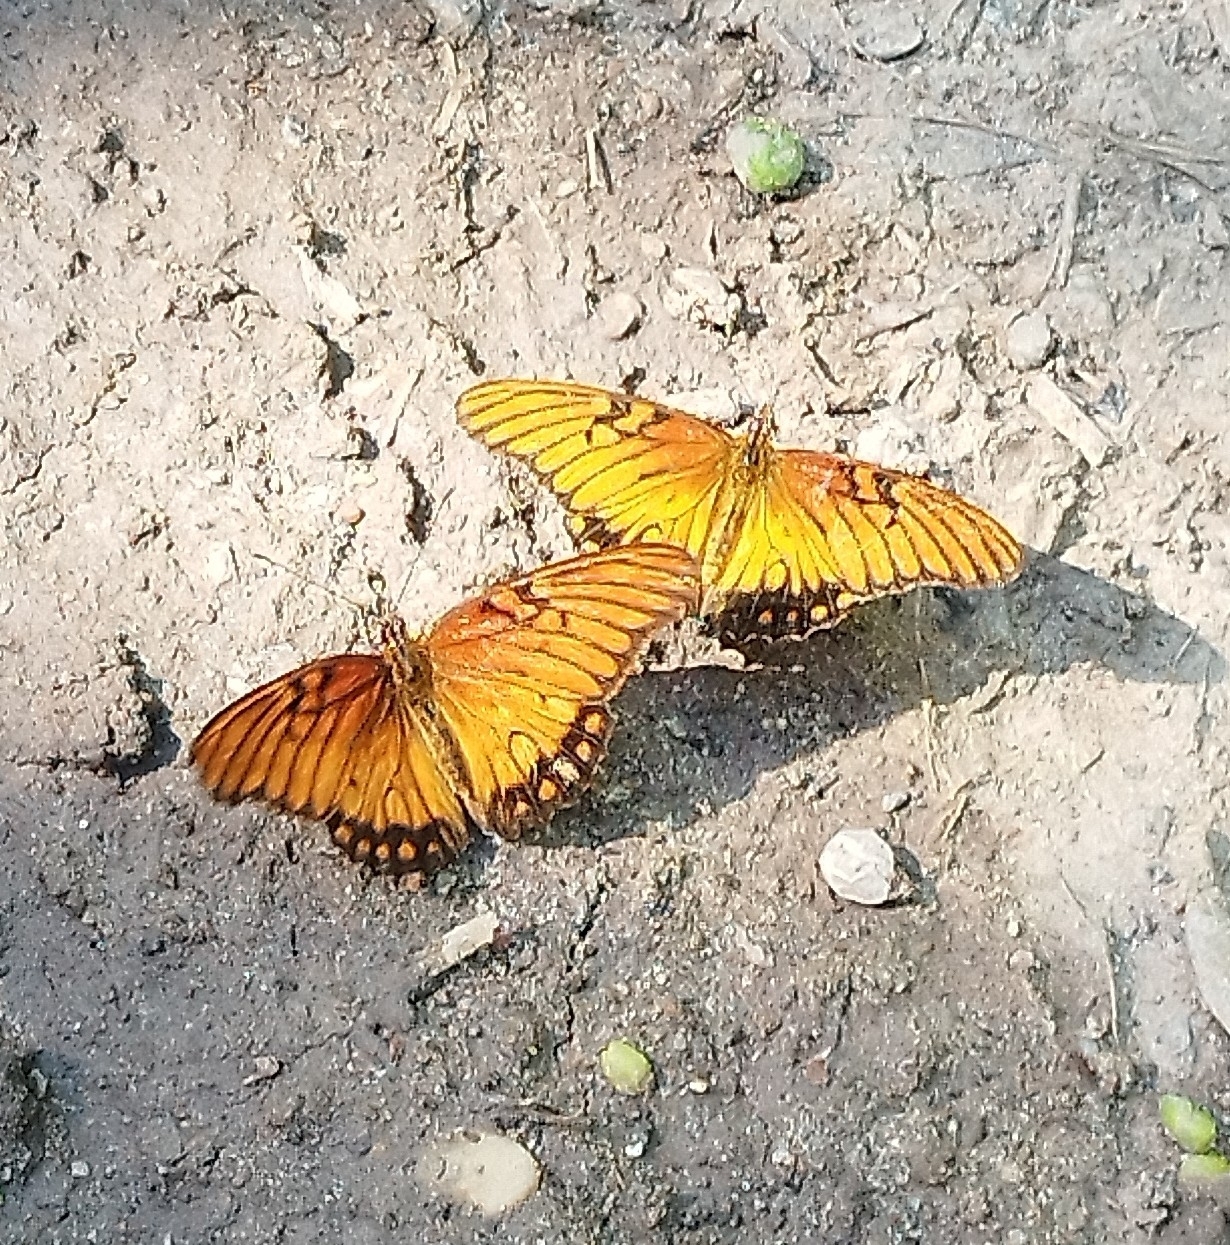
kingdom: Animalia
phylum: Arthropoda
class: Insecta
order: Lepidoptera
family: Nymphalidae
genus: Dione
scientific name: Dione moneta
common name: Mexican silverspot
